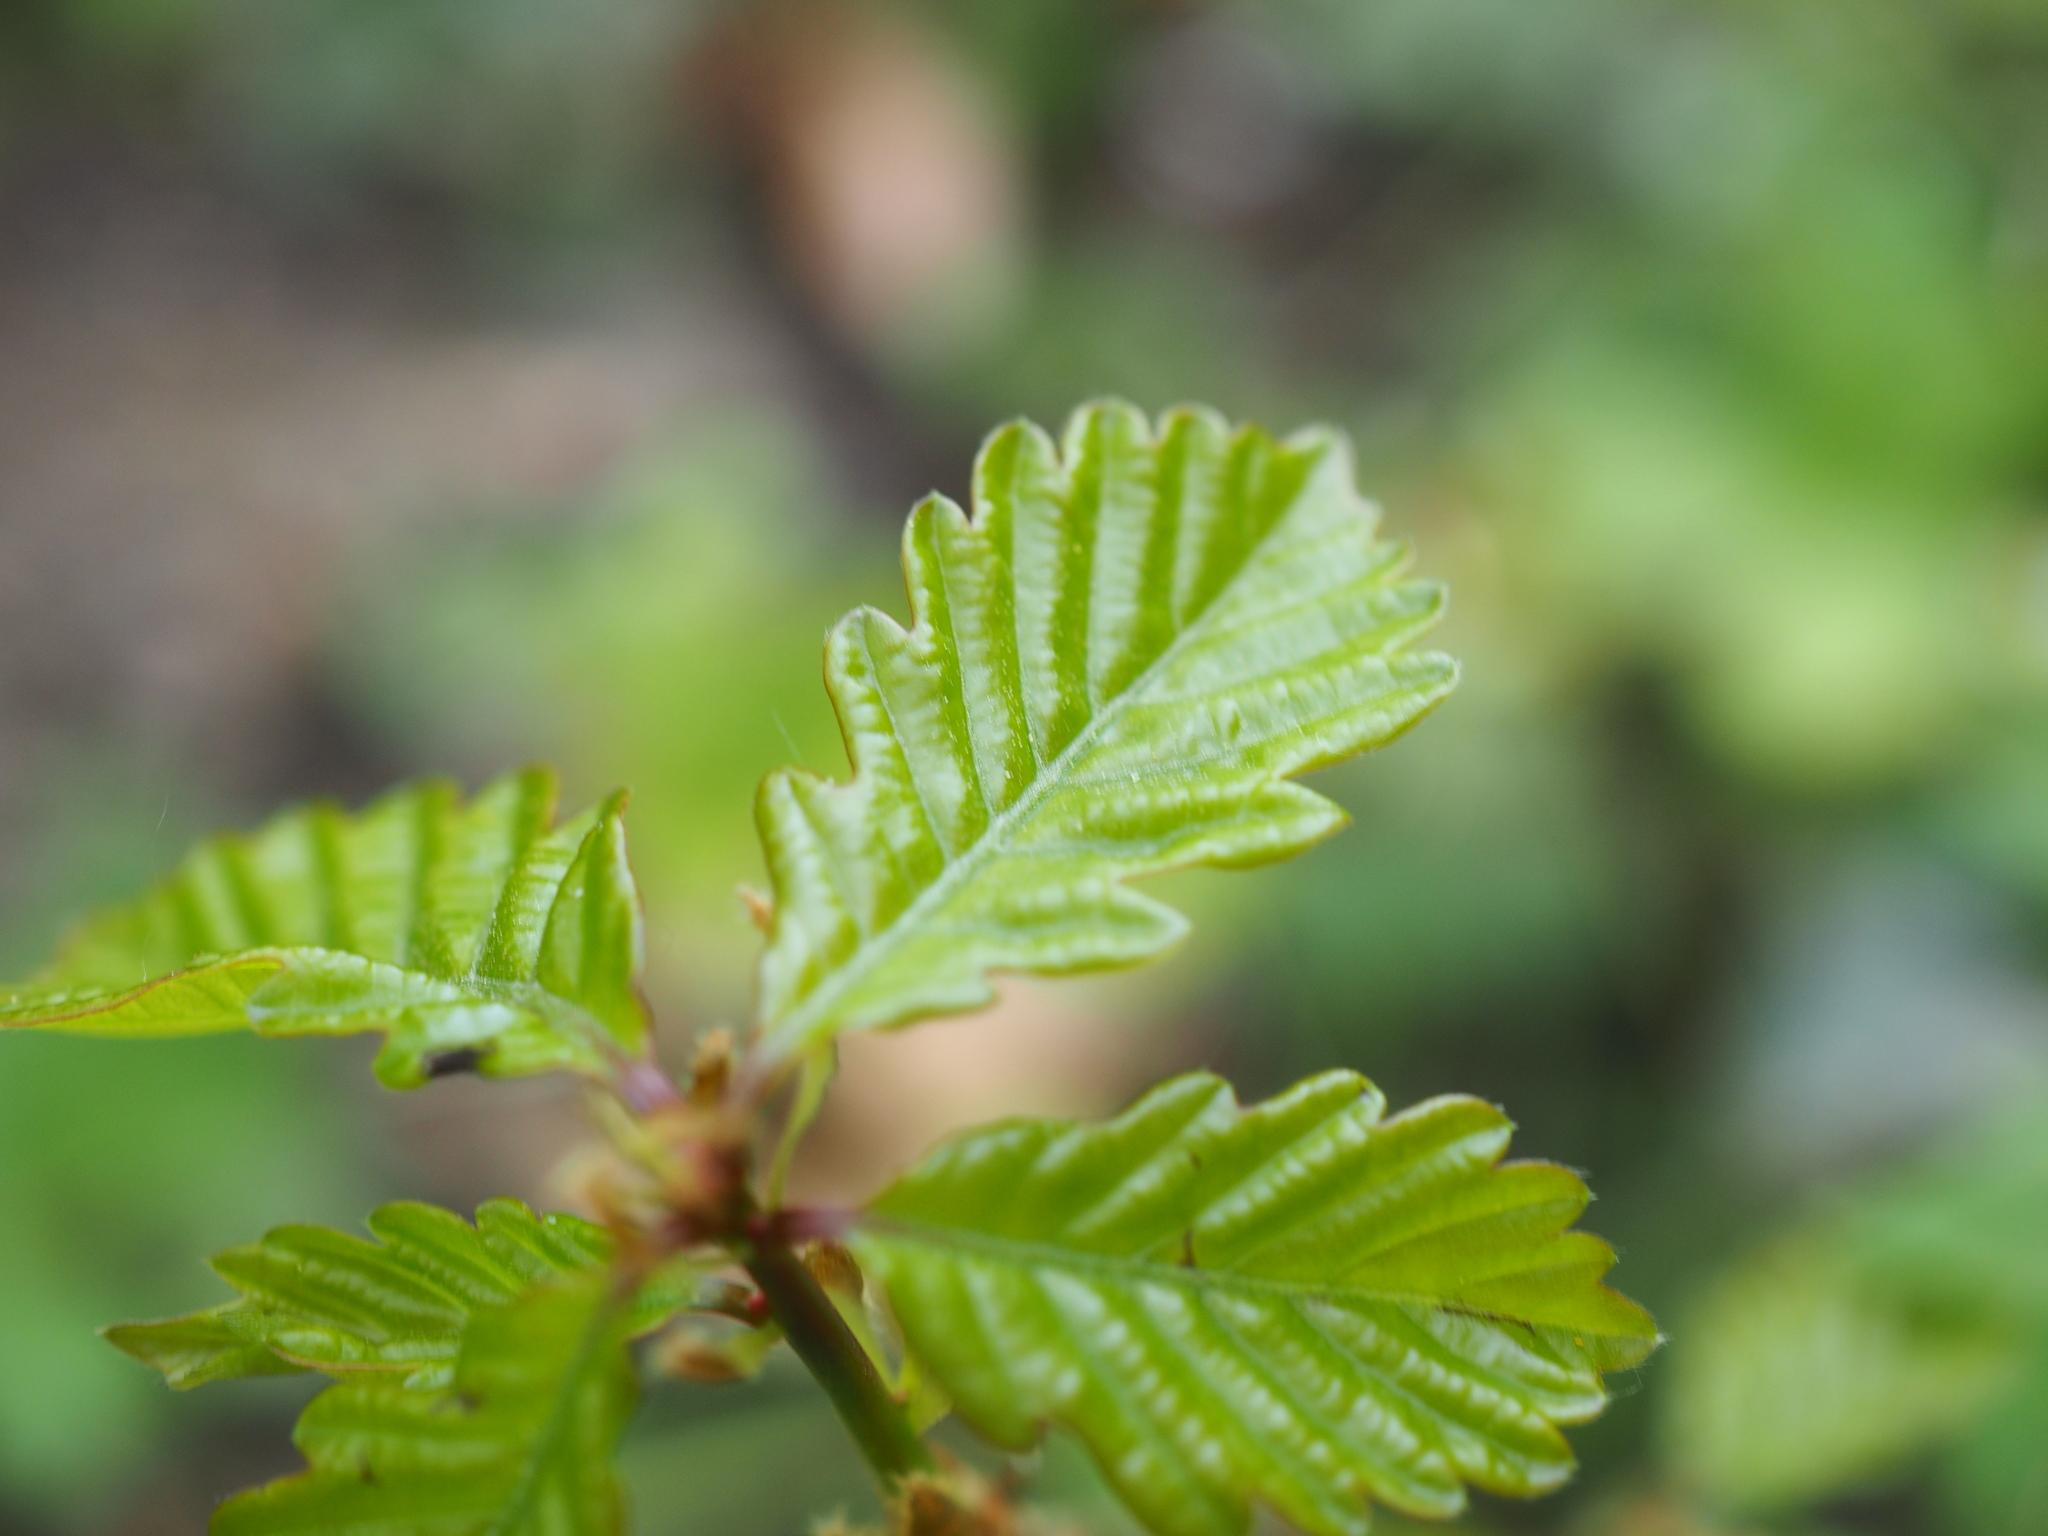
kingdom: Plantae
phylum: Tracheophyta
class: Magnoliopsida
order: Fagales
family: Fagaceae
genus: Quercus
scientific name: Quercus petraea
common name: Sessile oak
